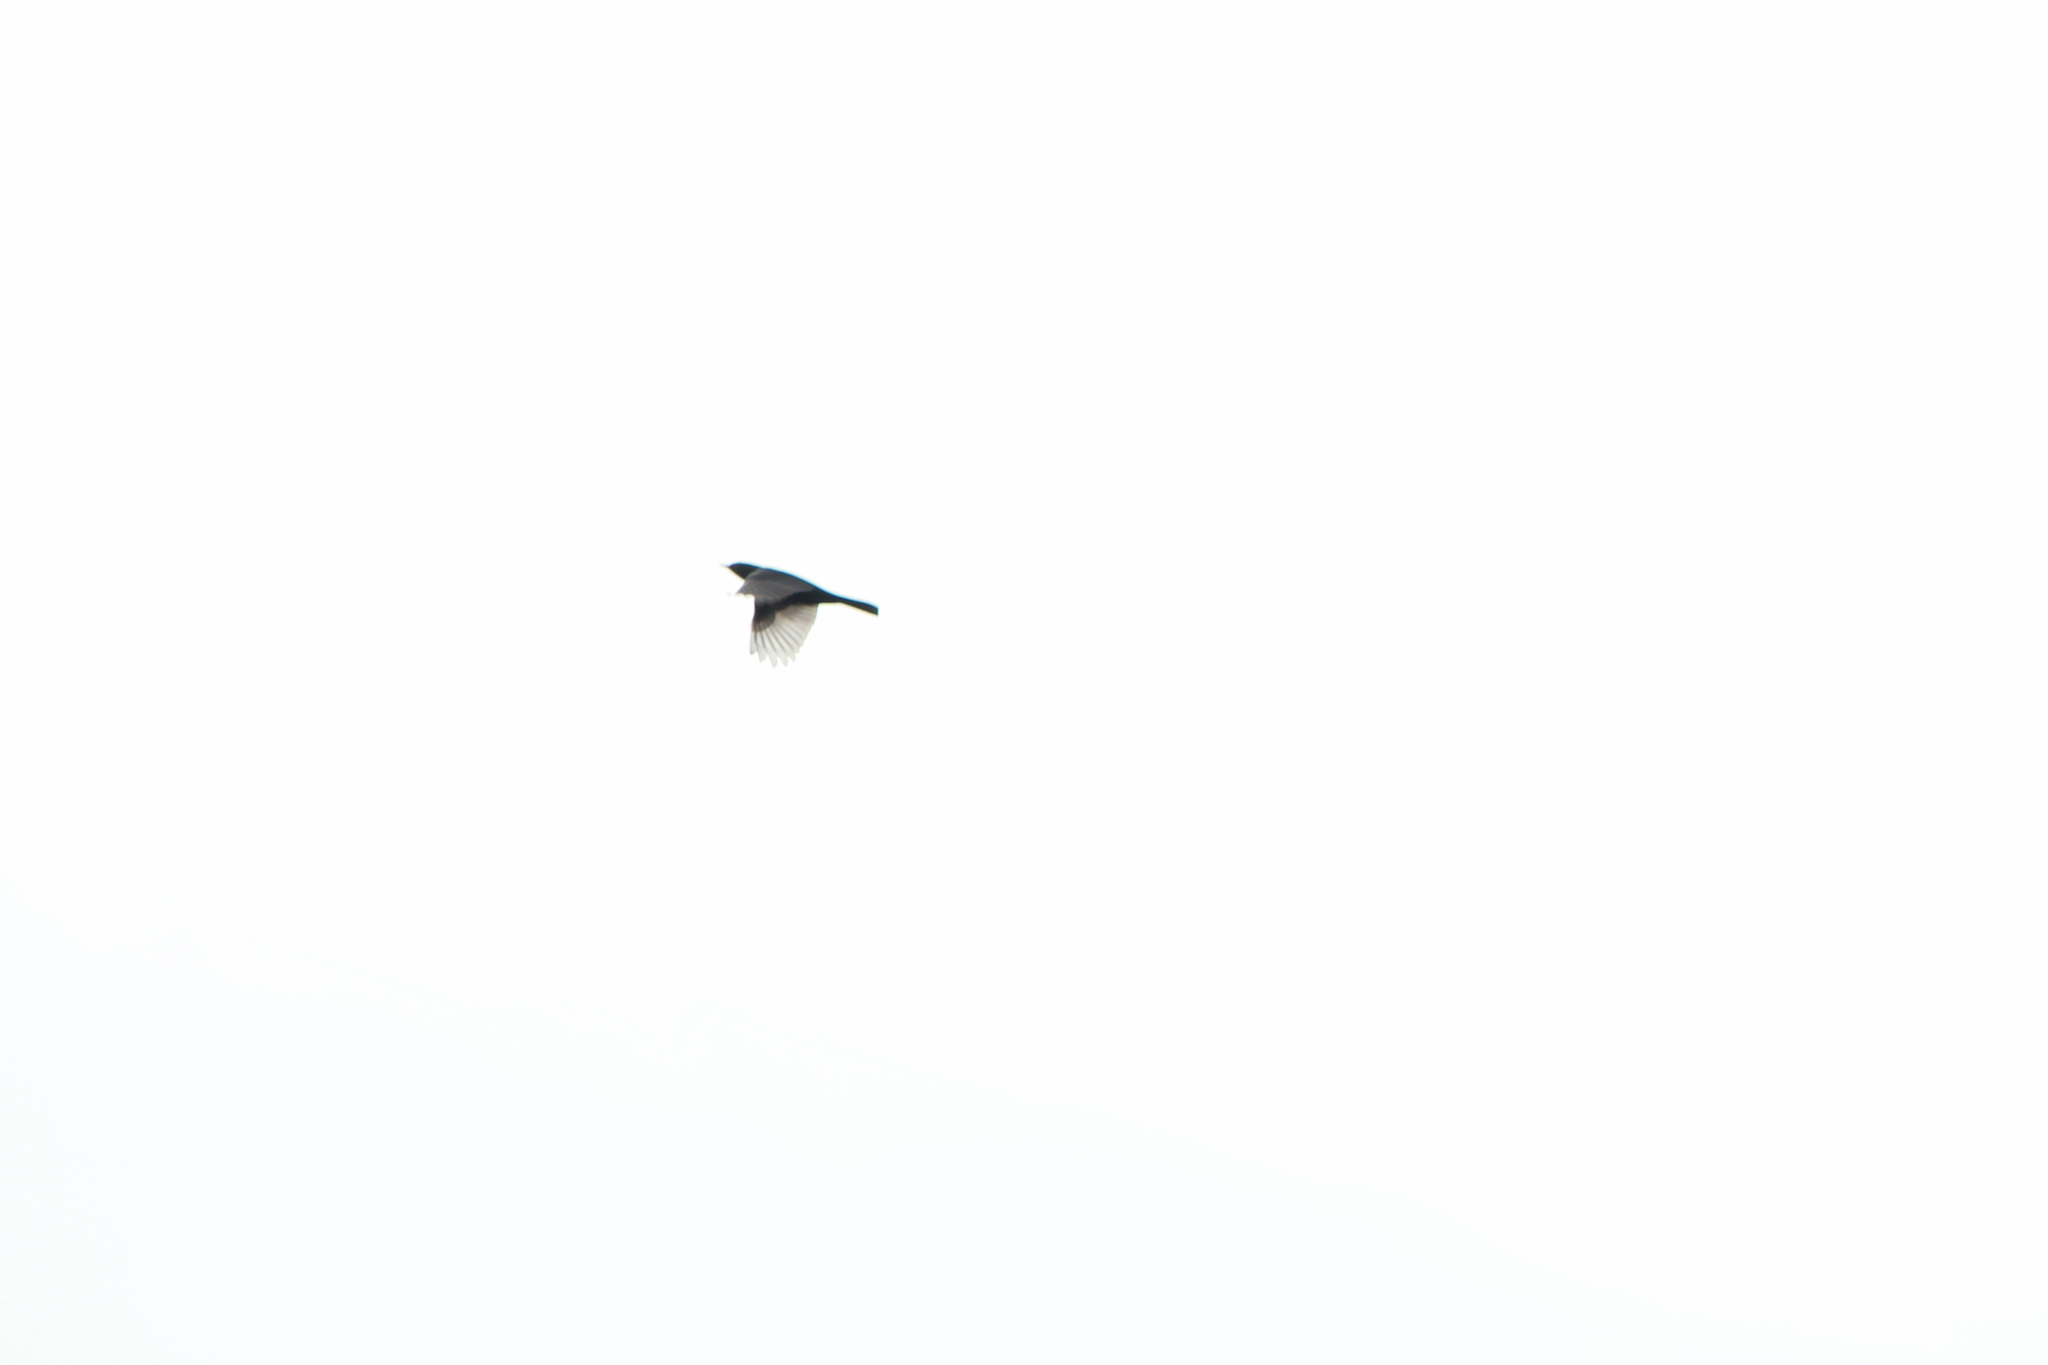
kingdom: Animalia
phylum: Chordata
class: Aves
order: Passeriformes
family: Turdidae
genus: Turdus
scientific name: Turdus merula
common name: Common blackbird
